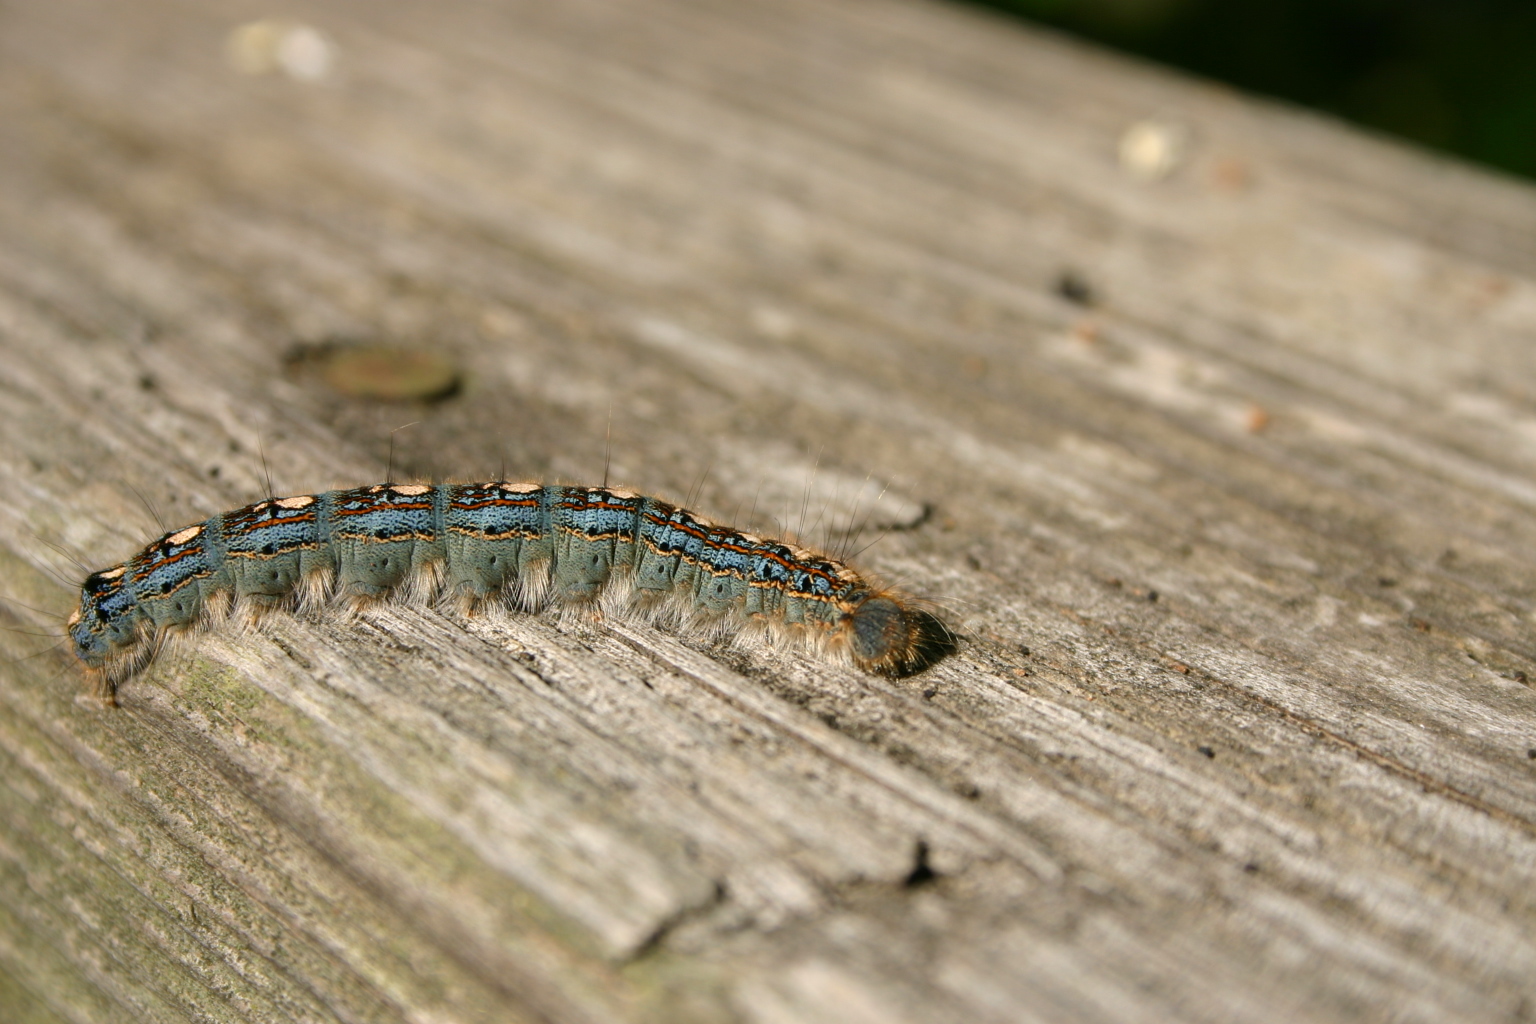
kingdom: Animalia
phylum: Arthropoda
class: Insecta
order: Lepidoptera
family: Lasiocampidae
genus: Malacosoma
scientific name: Malacosoma disstria
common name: Forest tent caterpillar
